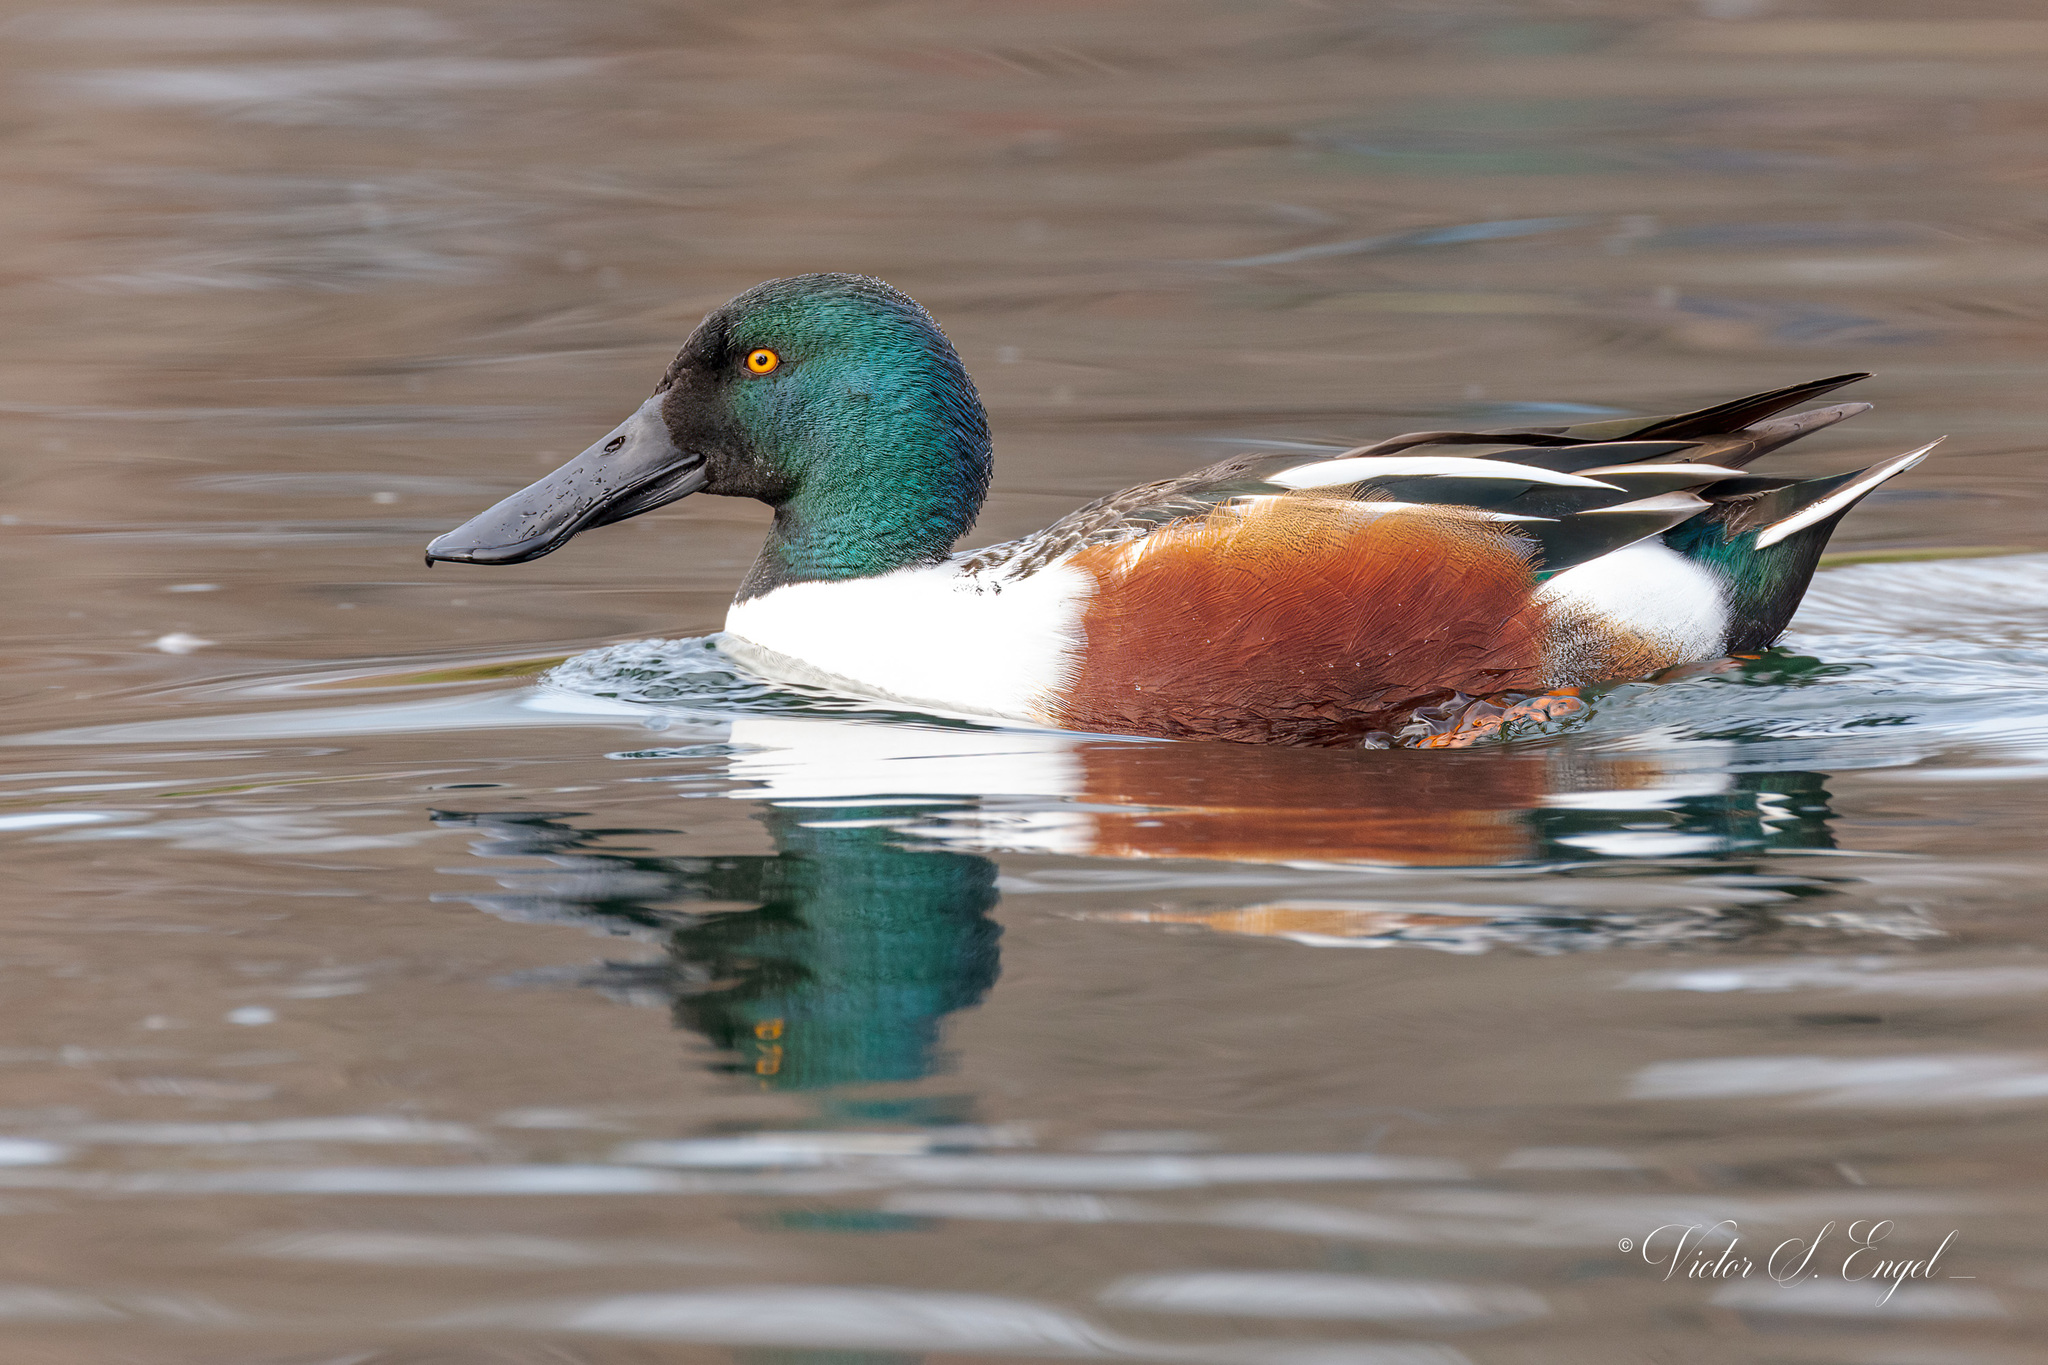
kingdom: Animalia
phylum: Chordata
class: Aves
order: Anseriformes
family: Anatidae
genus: Spatula
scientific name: Spatula clypeata
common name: Northern shoveler
